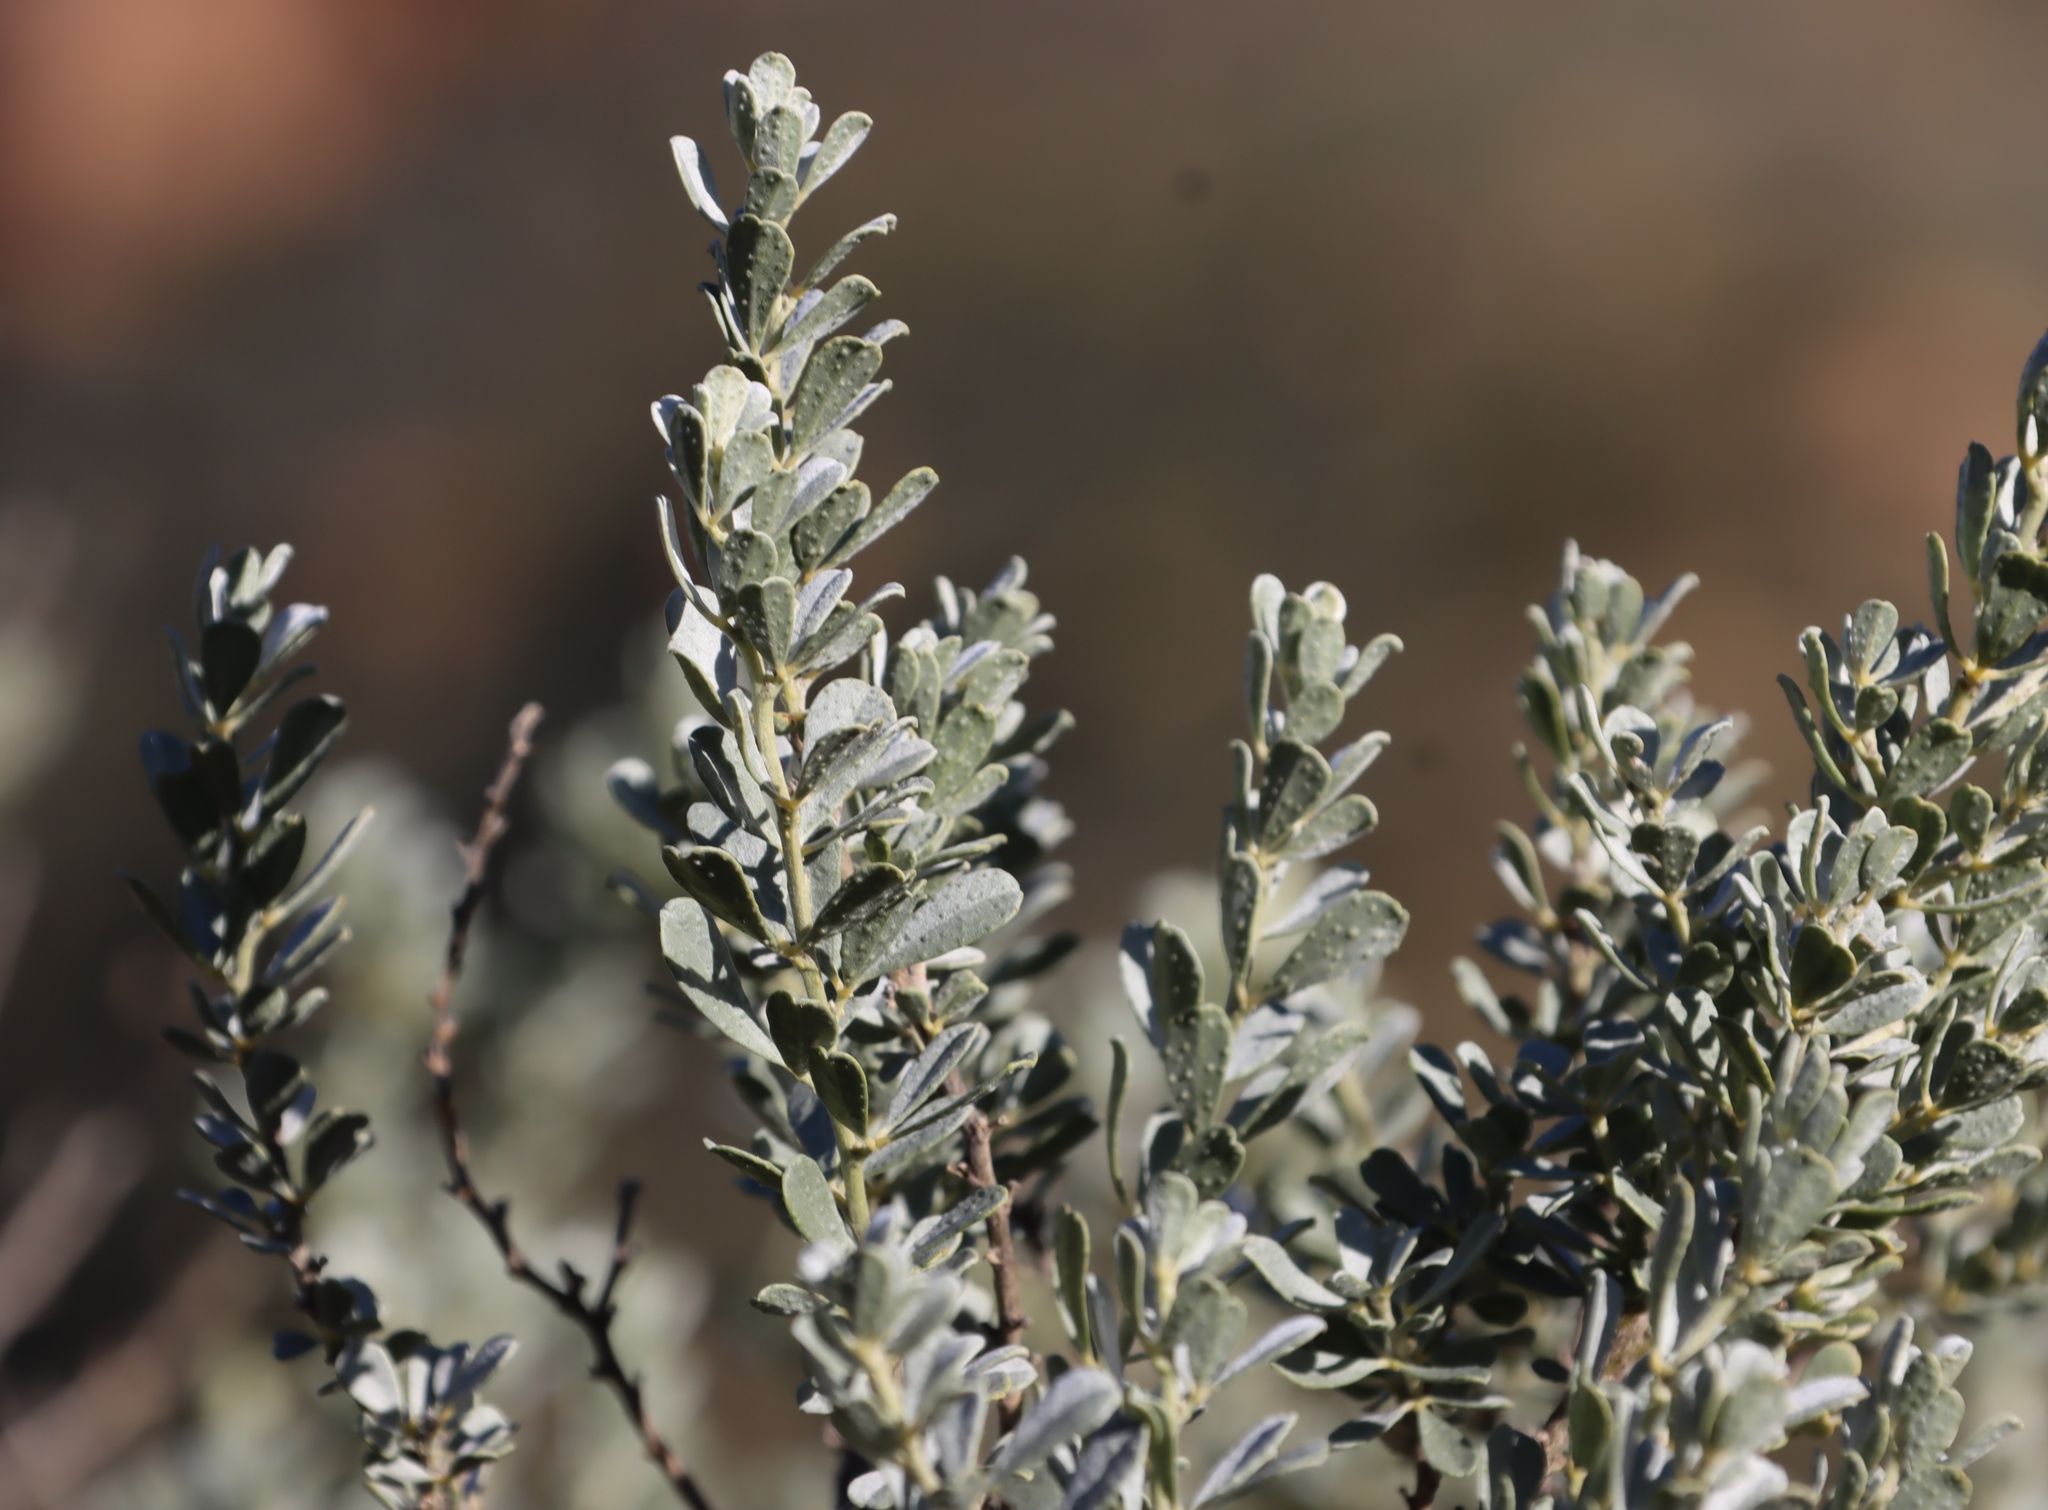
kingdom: Plantae
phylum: Tracheophyta
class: Magnoliopsida
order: Fabales
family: Fabaceae
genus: Psoralea
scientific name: Psoralea velutina
